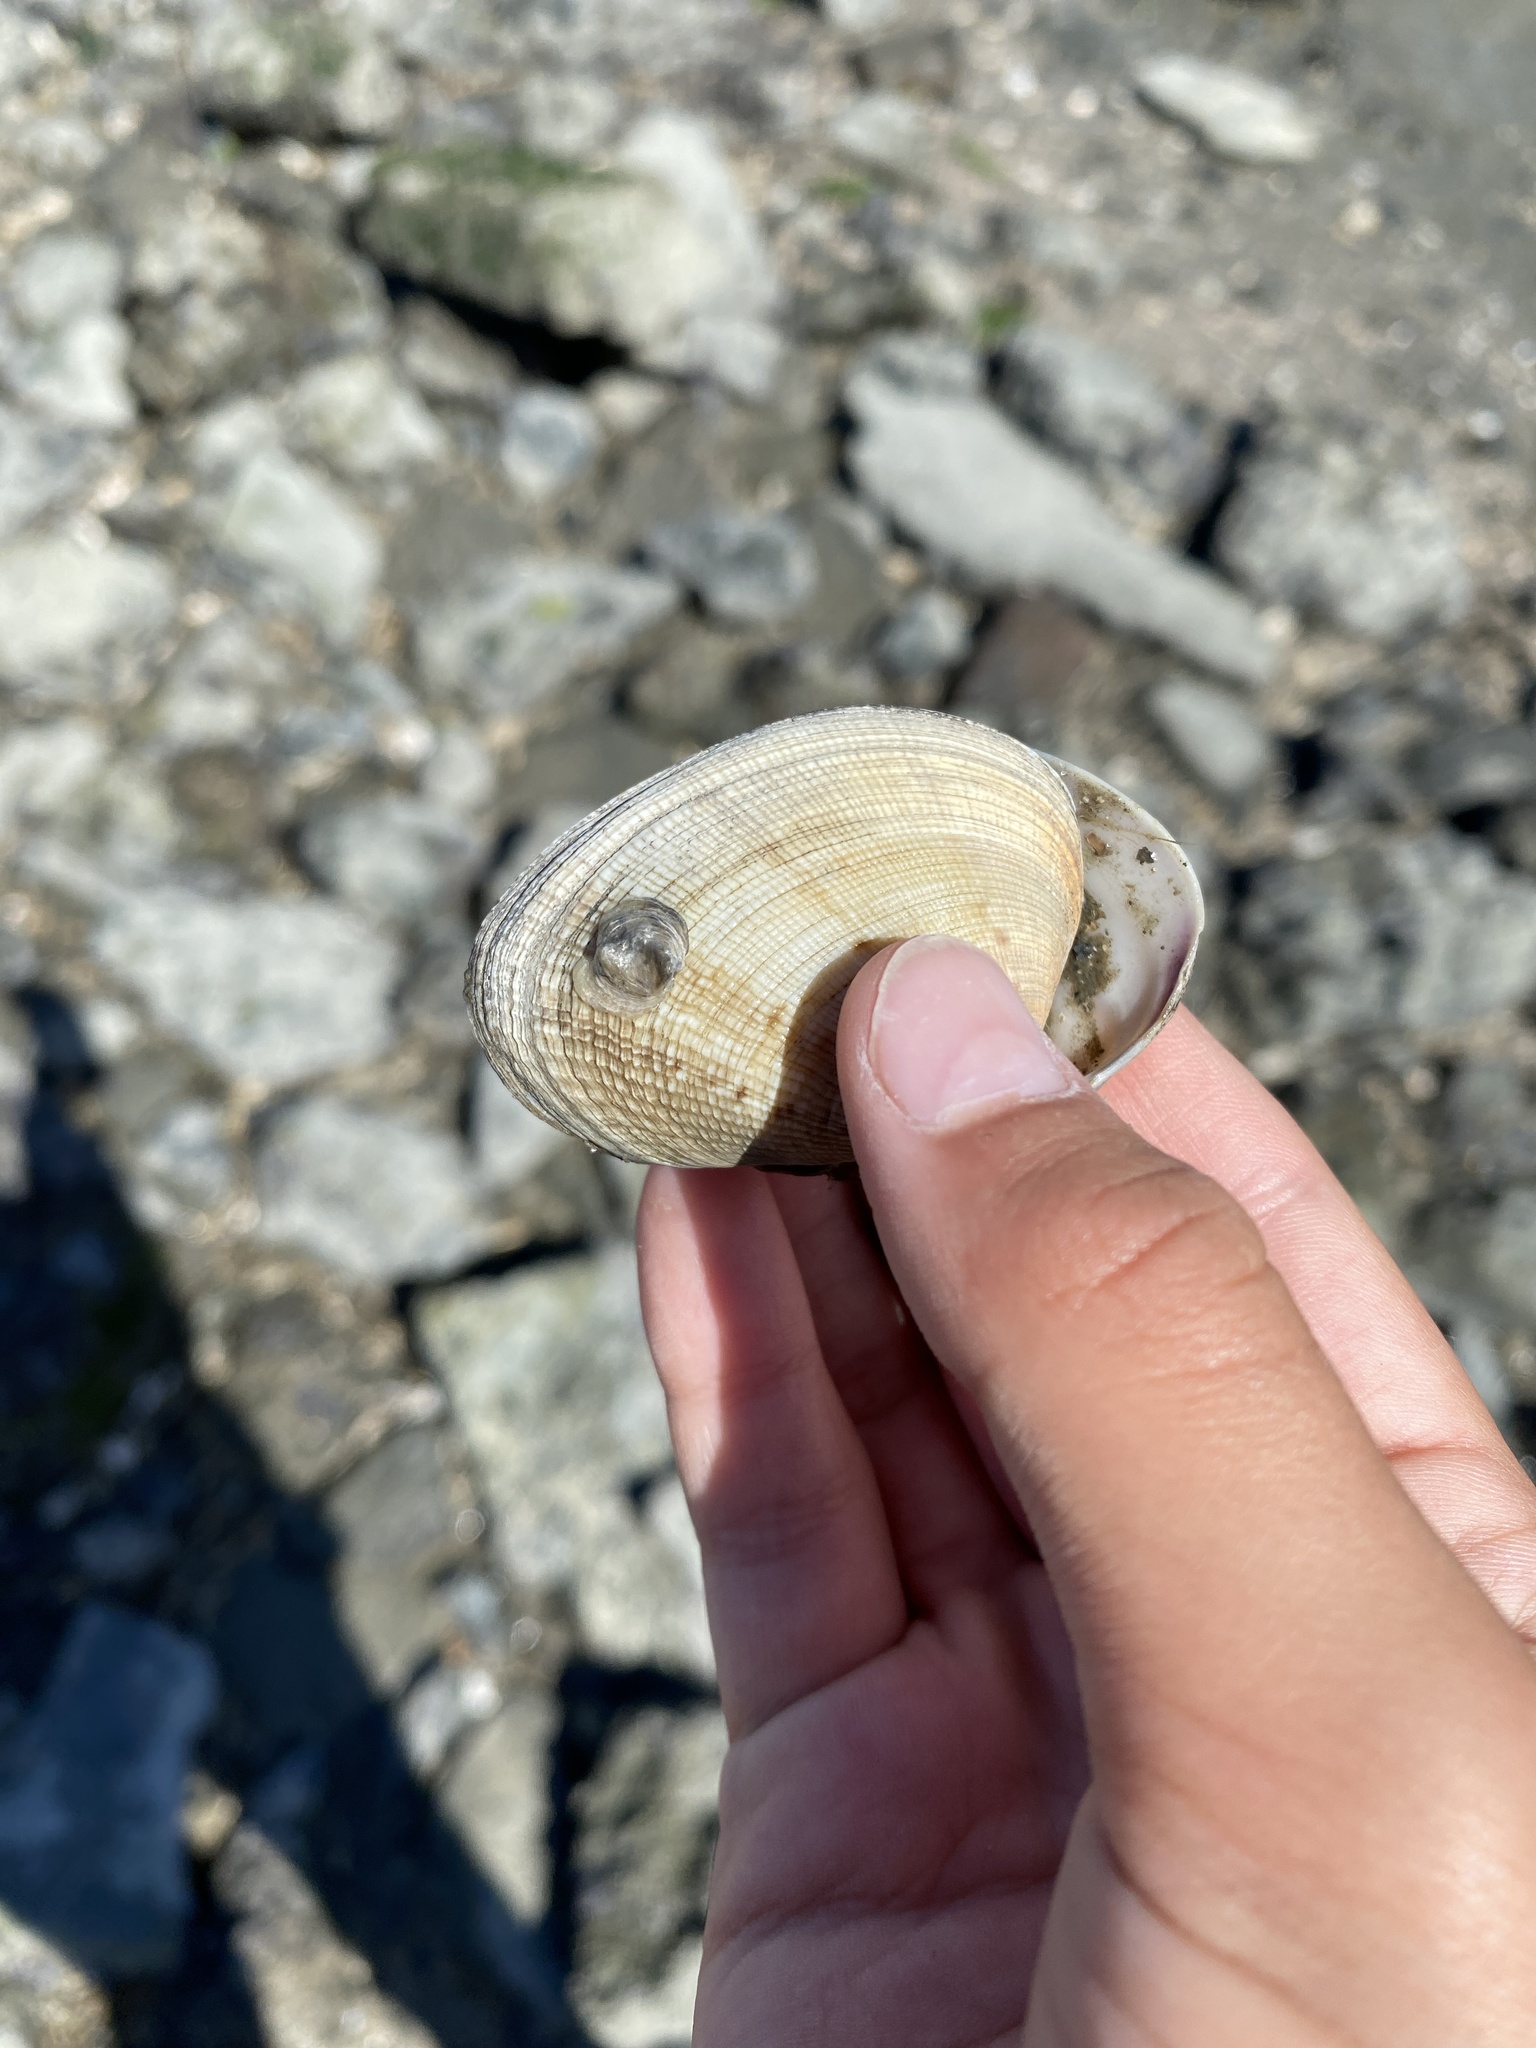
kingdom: Animalia
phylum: Mollusca
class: Bivalvia
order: Venerida
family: Veneridae
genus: Ruditapes
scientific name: Ruditapes philippinarum
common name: Manila clam
